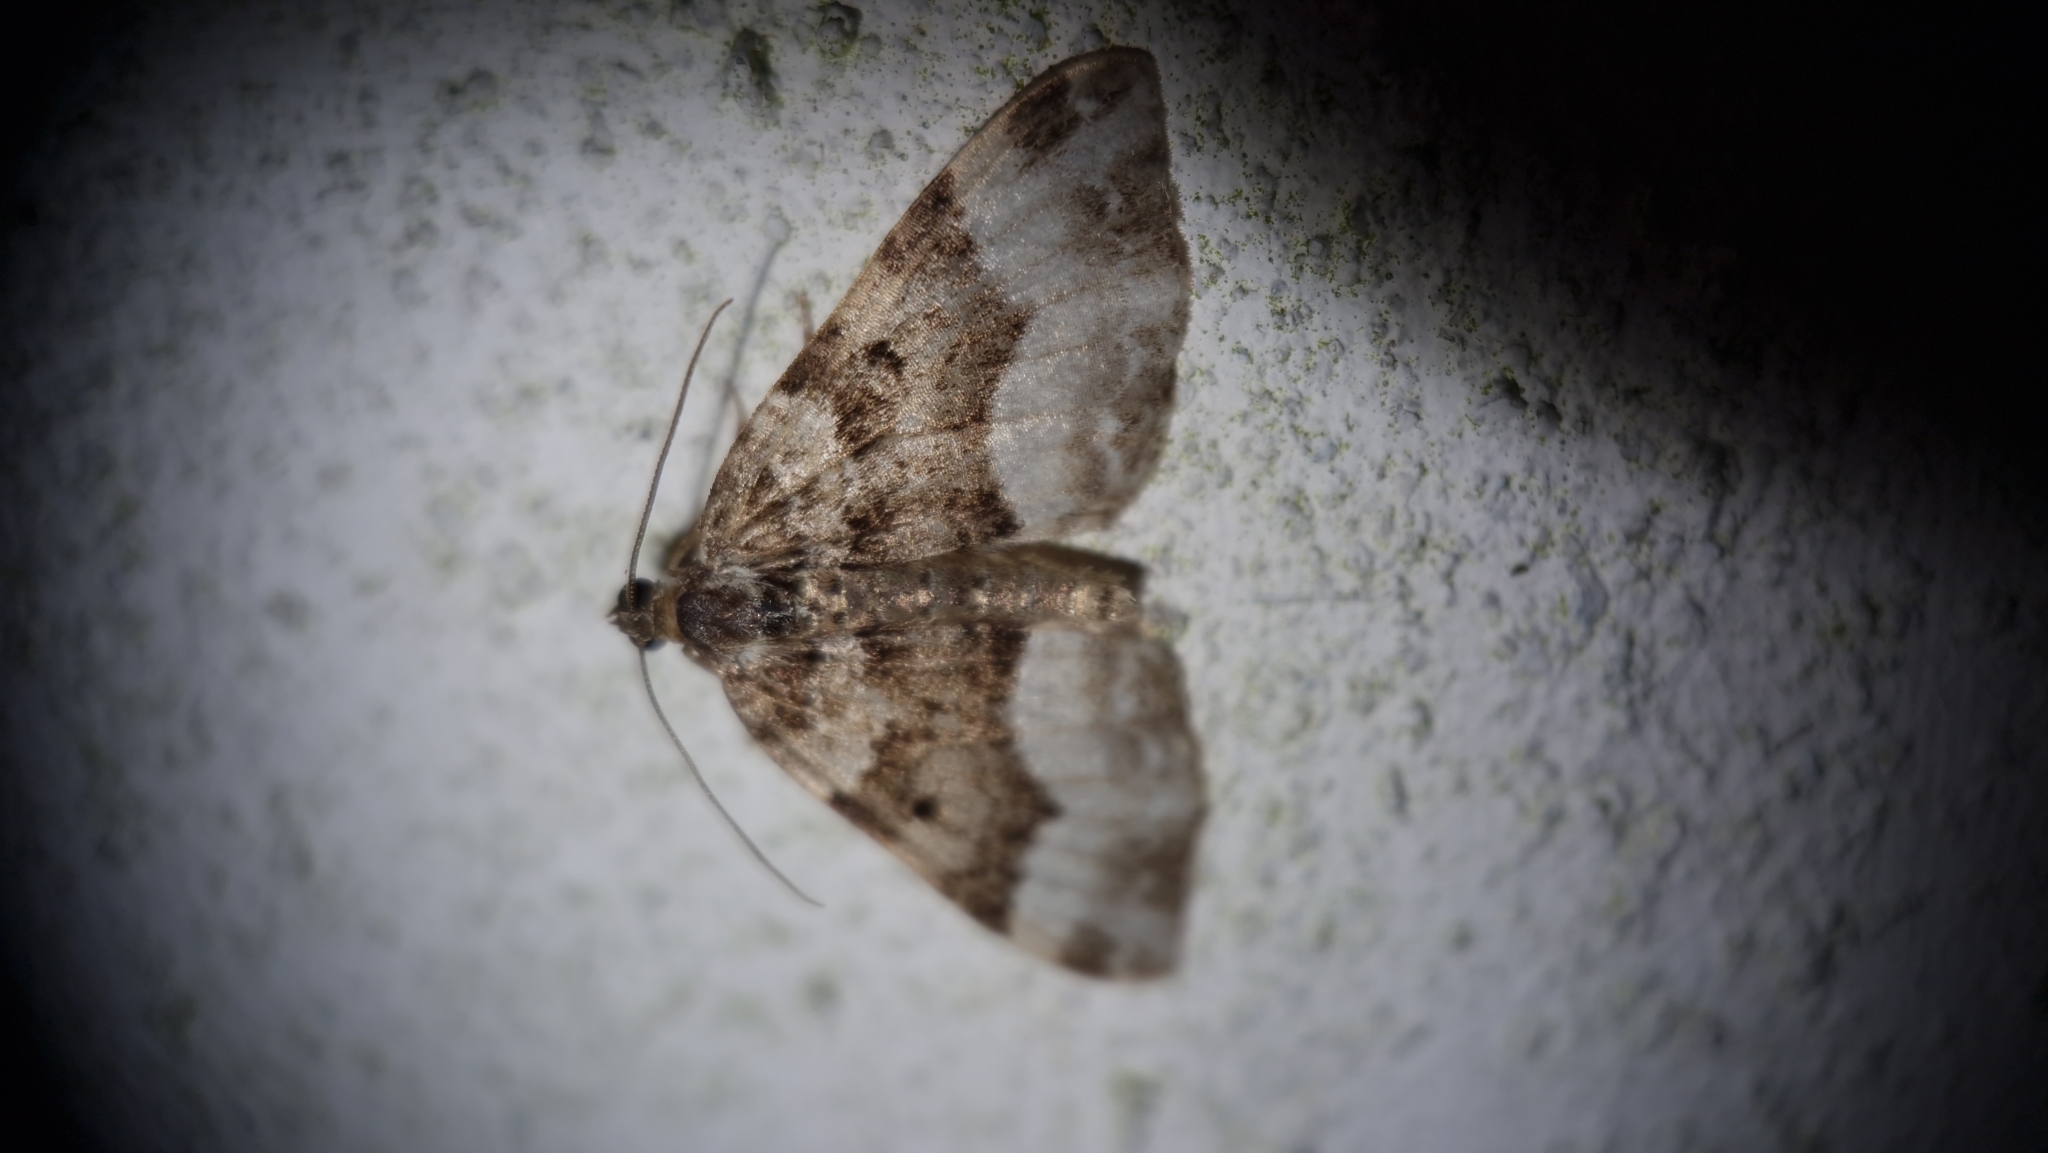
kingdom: Animalia
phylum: Arthropoda
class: Insecta
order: Lepidoptera
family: Geometridae
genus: Euphyia
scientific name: Euphyia unangulata
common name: Sharp-angled carpet
